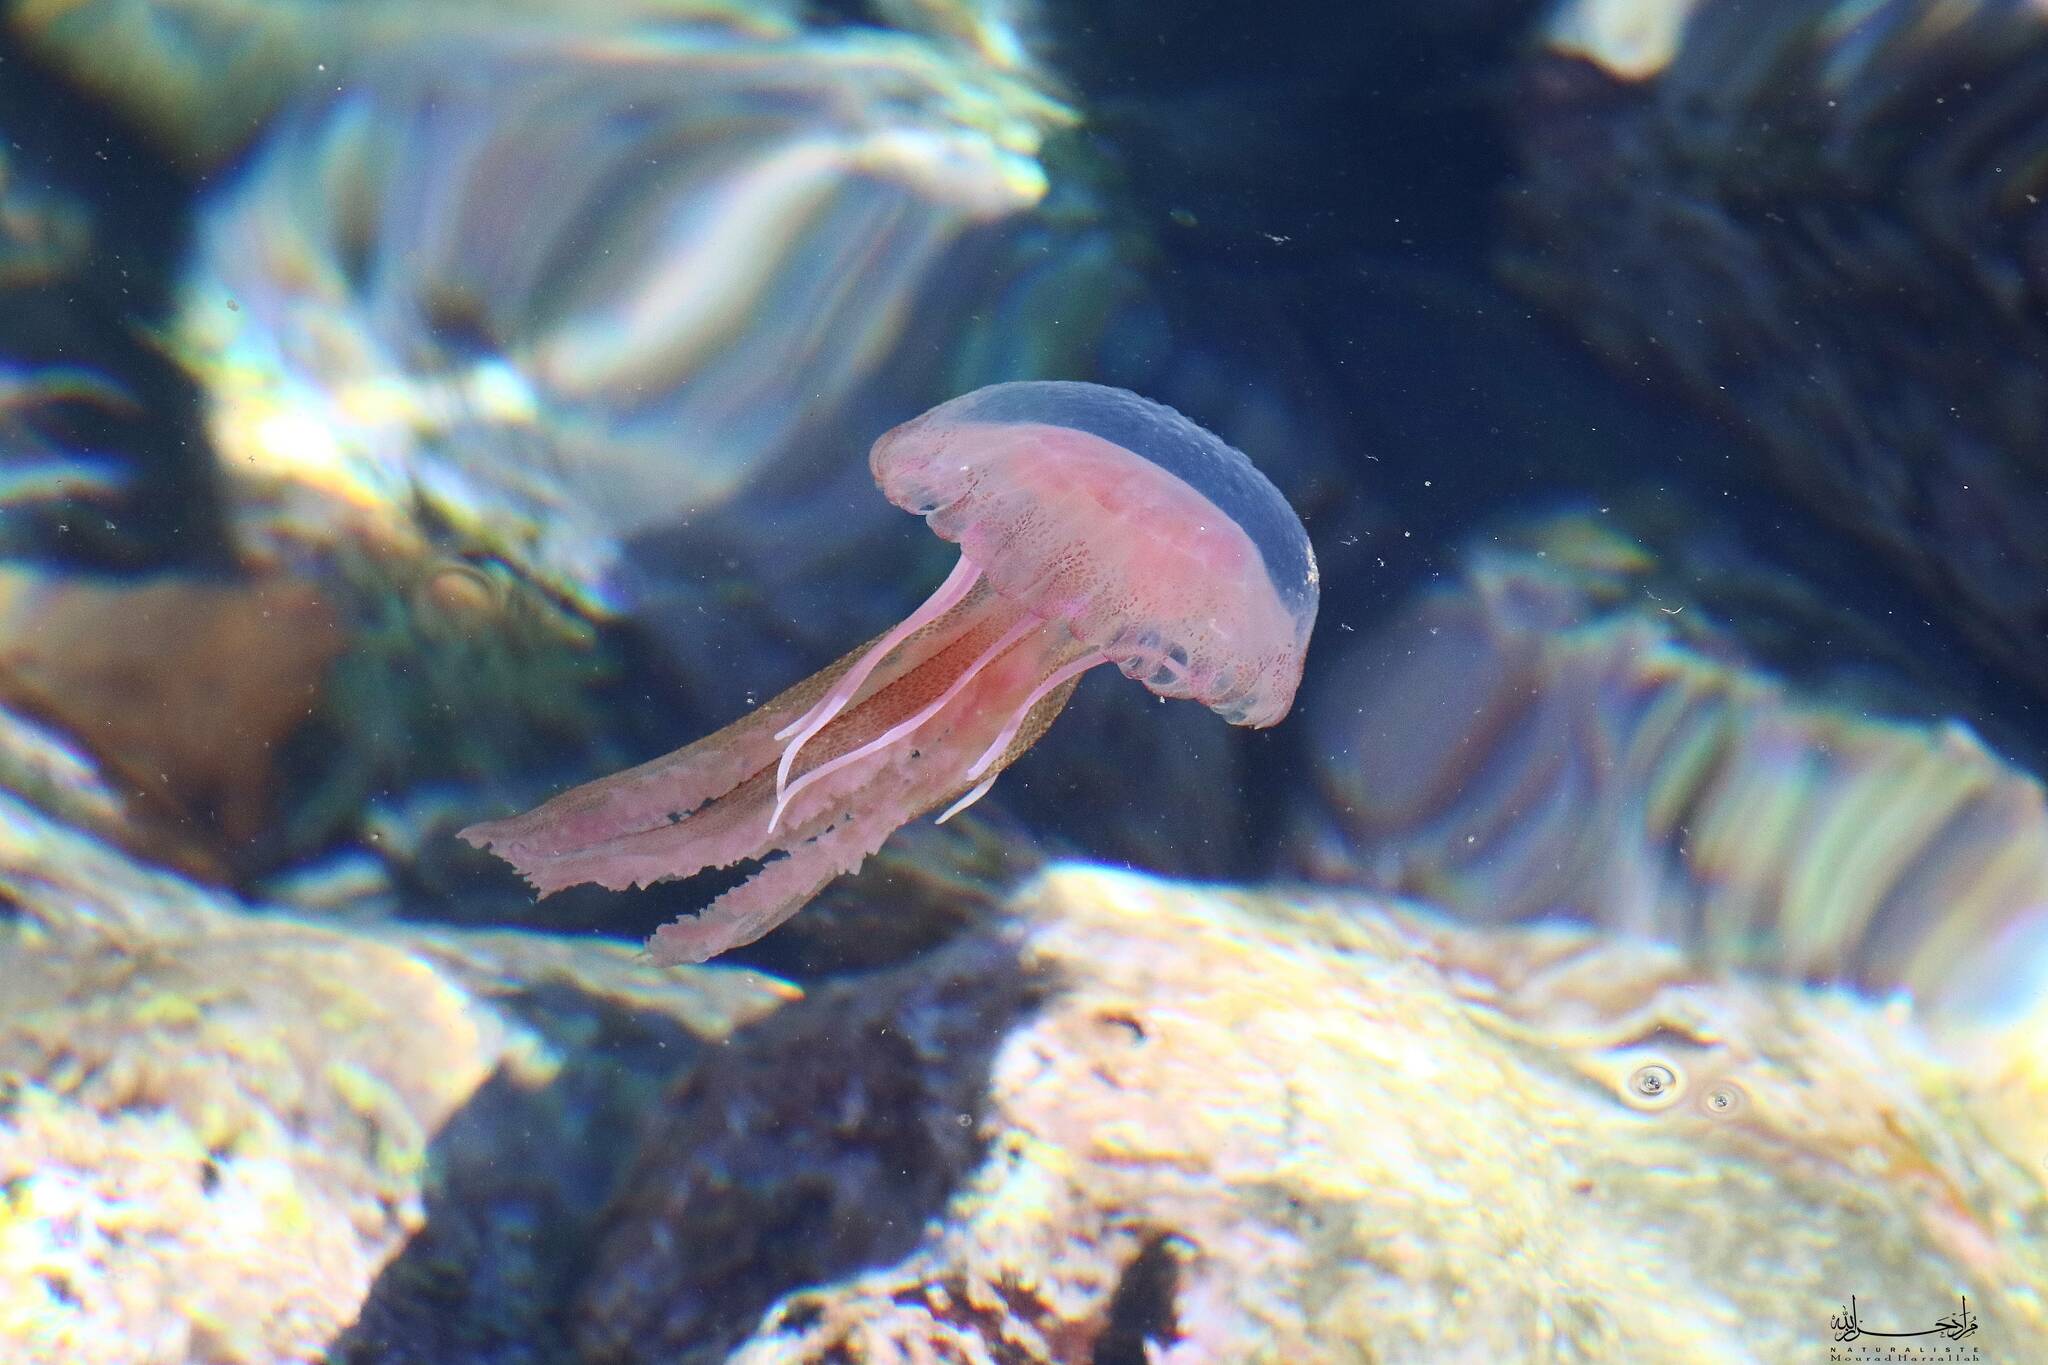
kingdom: Animalia
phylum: Cnidaria
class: Scyphozoa
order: Semaeostomeae
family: Pelagiidae
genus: Pelagia
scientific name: Pelagia noctiluca
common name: Mauve stinger
